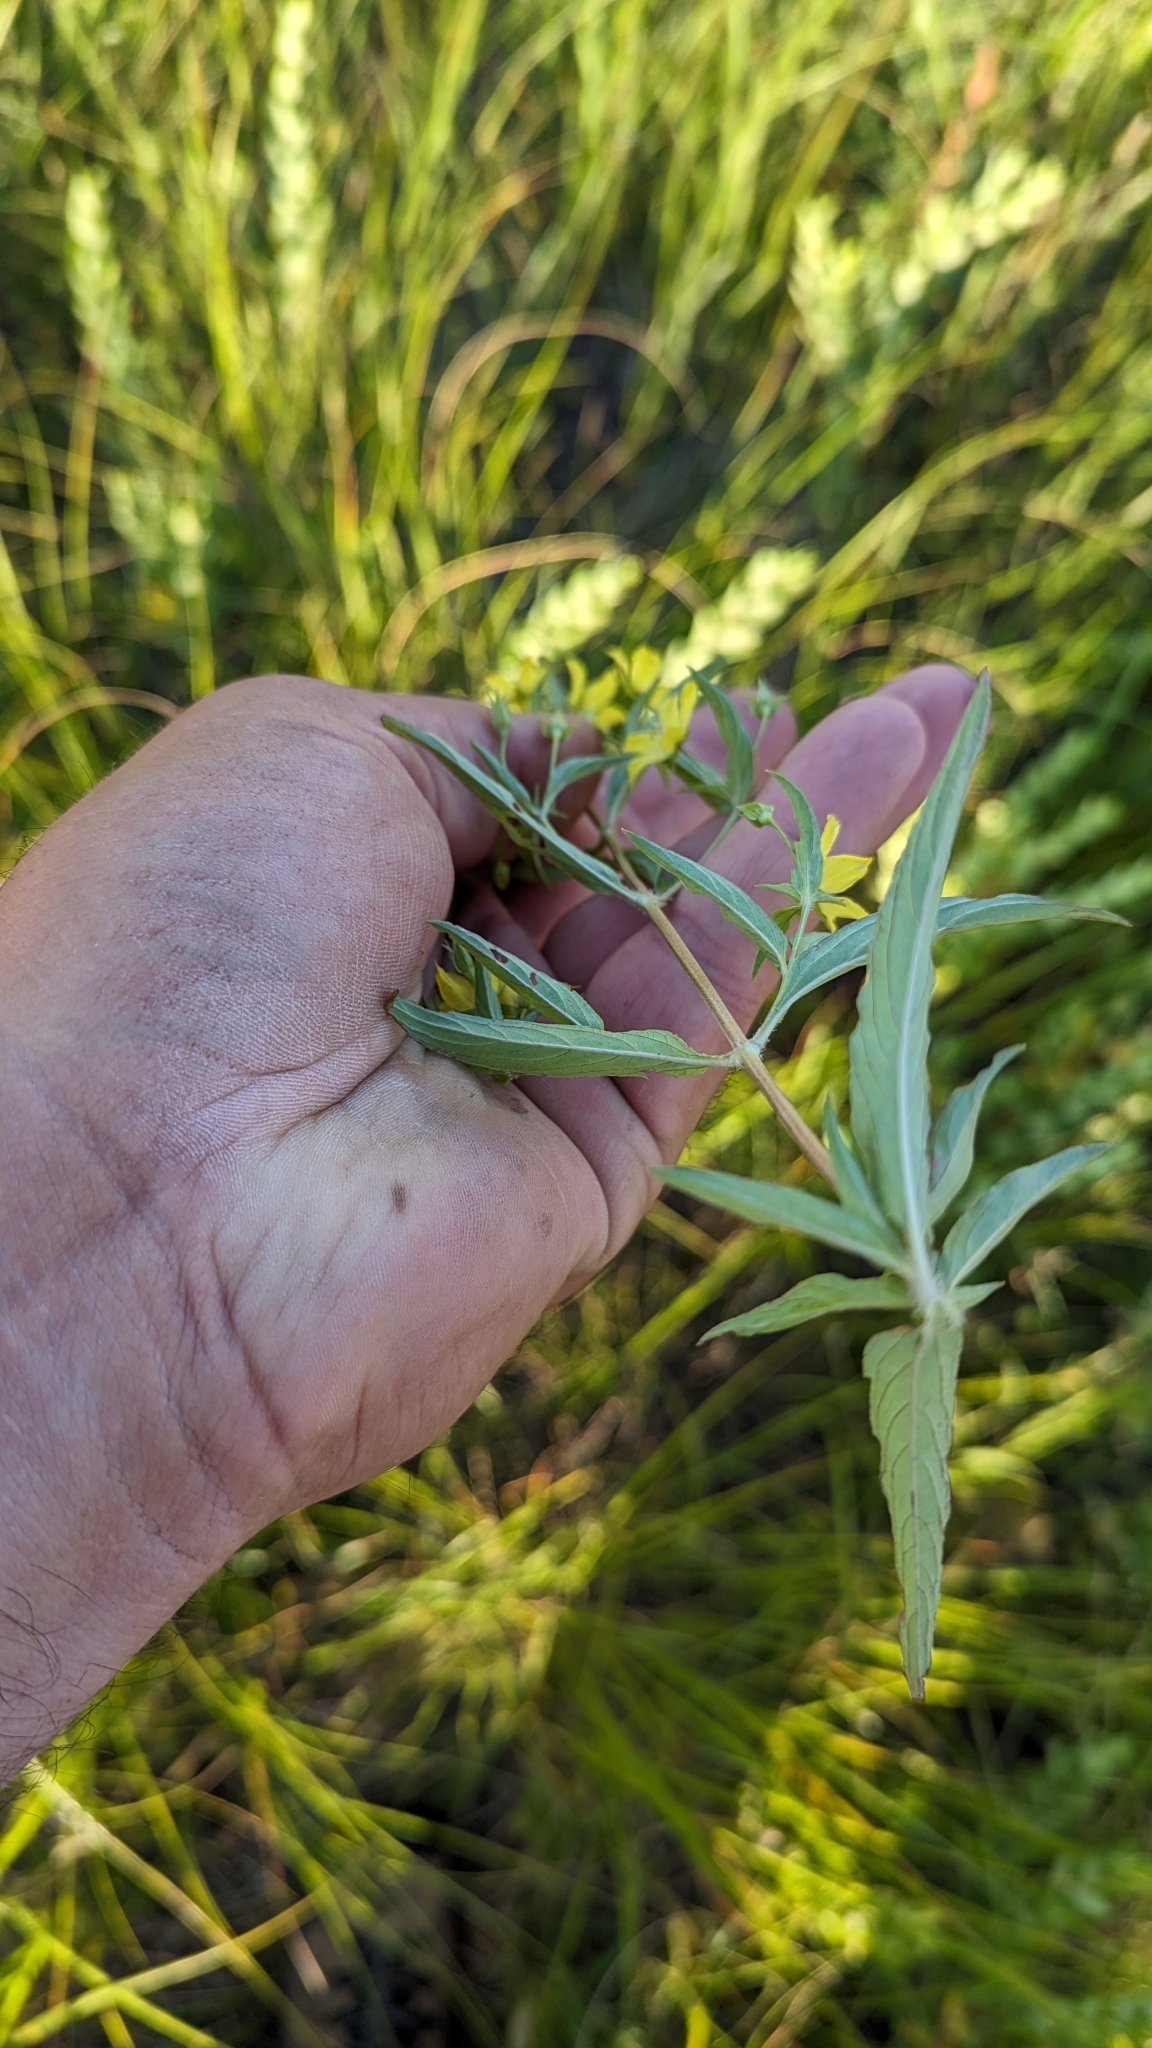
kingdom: Plantae
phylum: Tracheophyta
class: Magnoliopsida
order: Ericales
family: Primulaceae
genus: Lysimachia
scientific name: Lysimachia hybrida
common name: Lowland loosestrife
